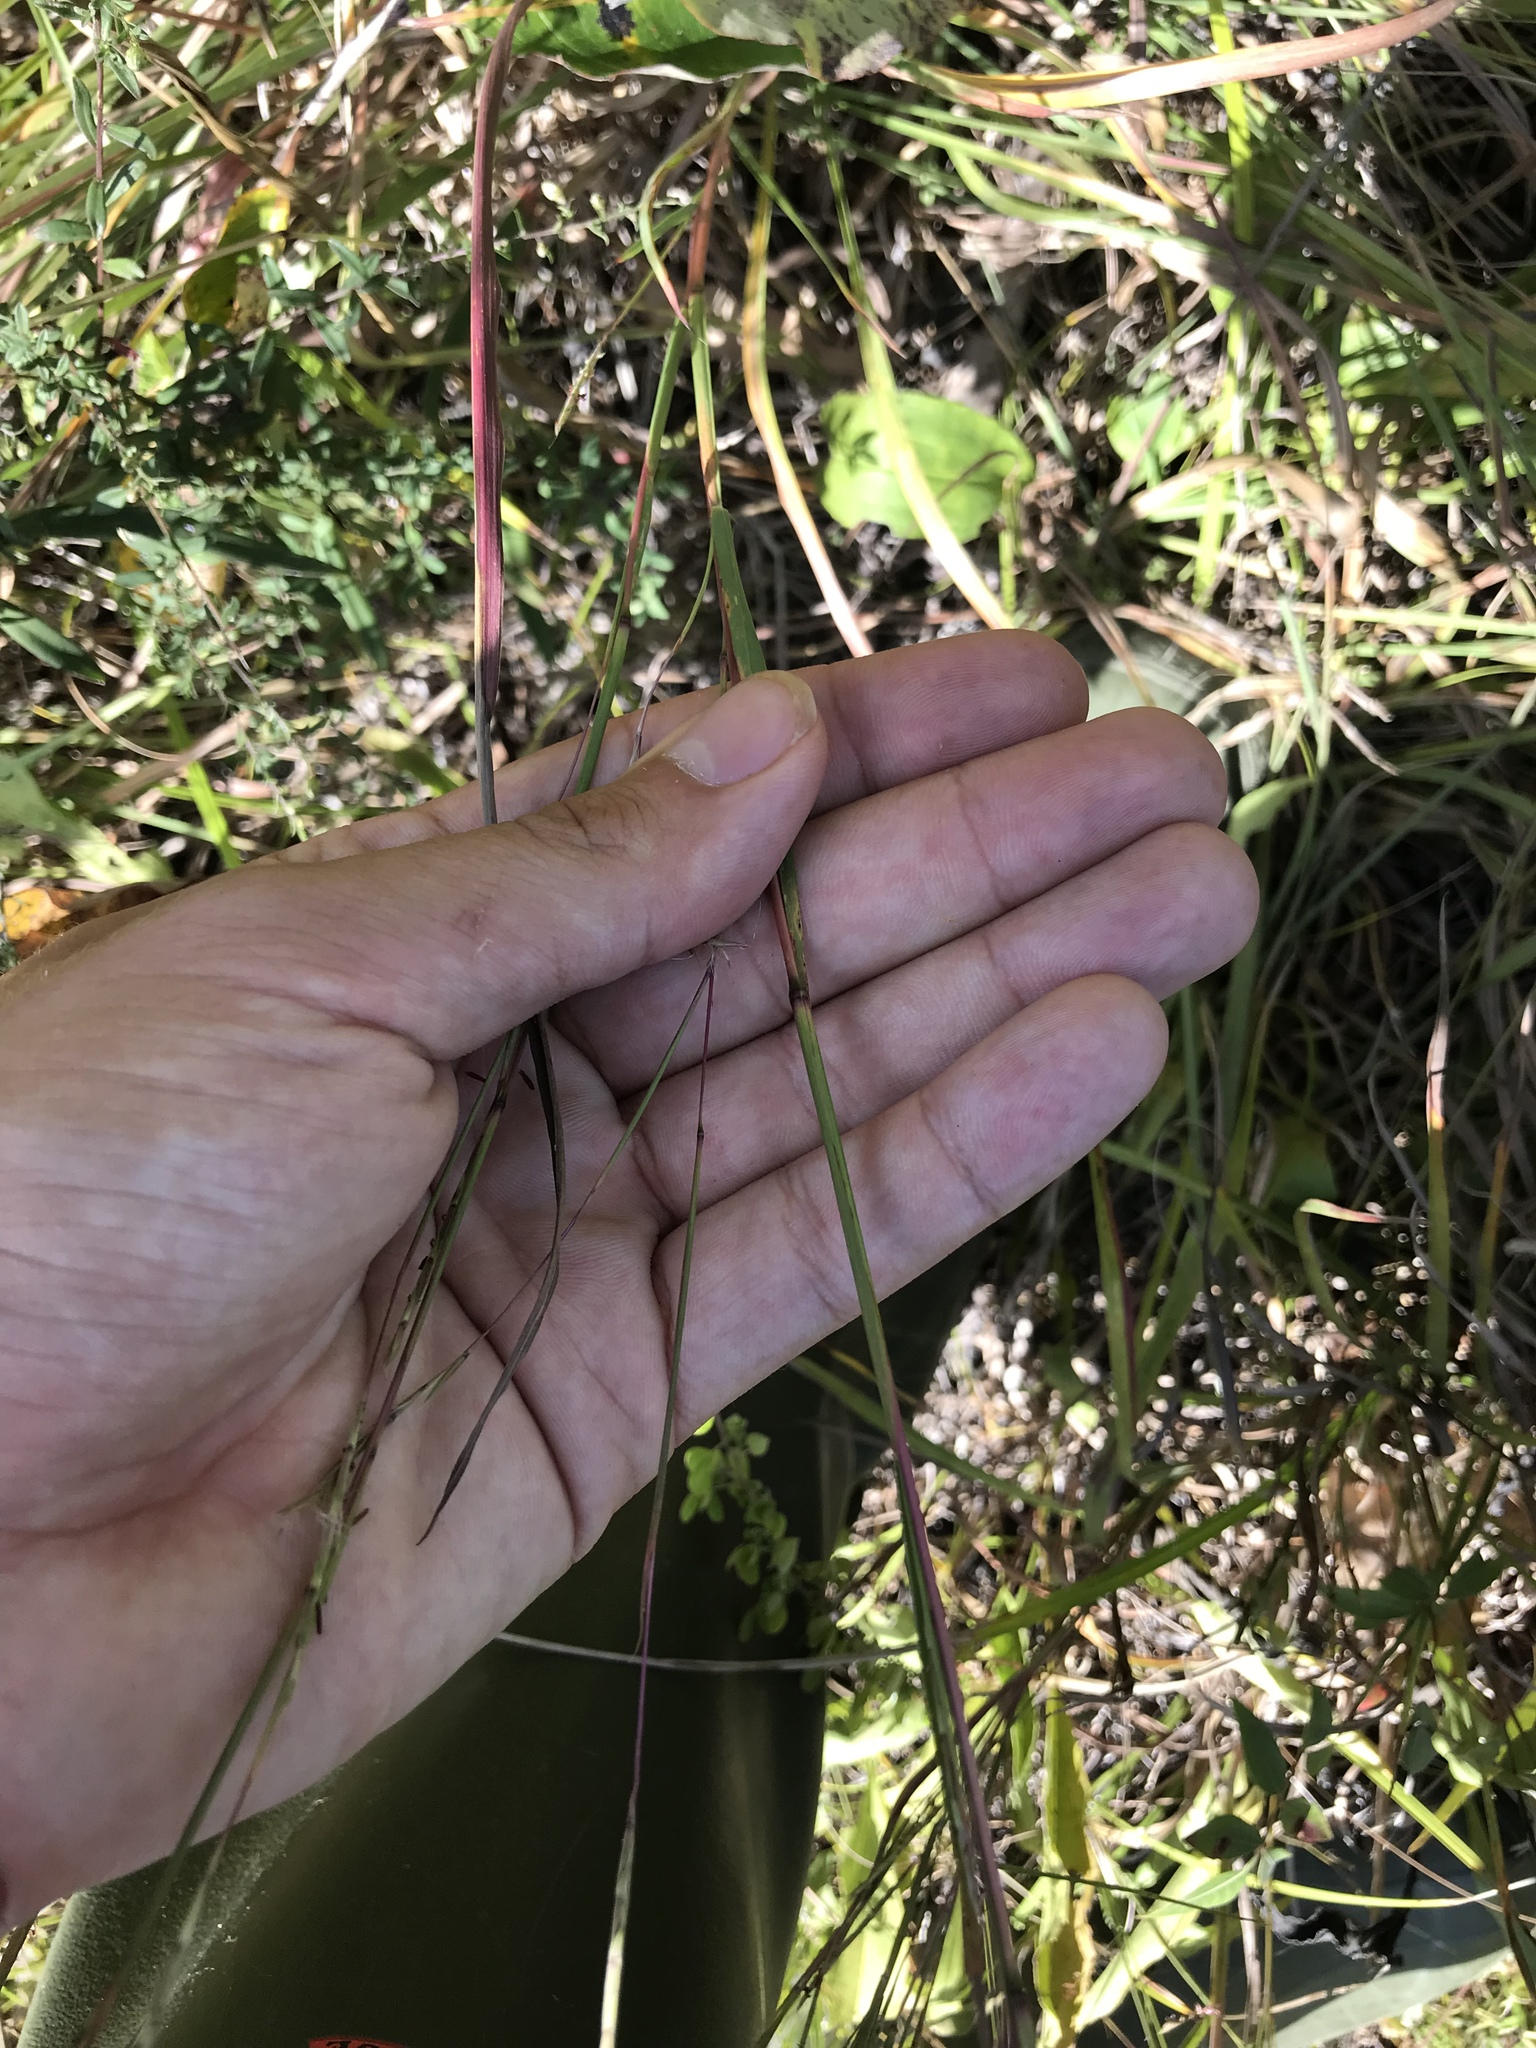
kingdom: Plantae
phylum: Tracheophyta
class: Liliopsida
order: Poales
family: Poaceae
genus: Schizachyrium
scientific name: Schizachyrium scoparium
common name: Little bluestem
